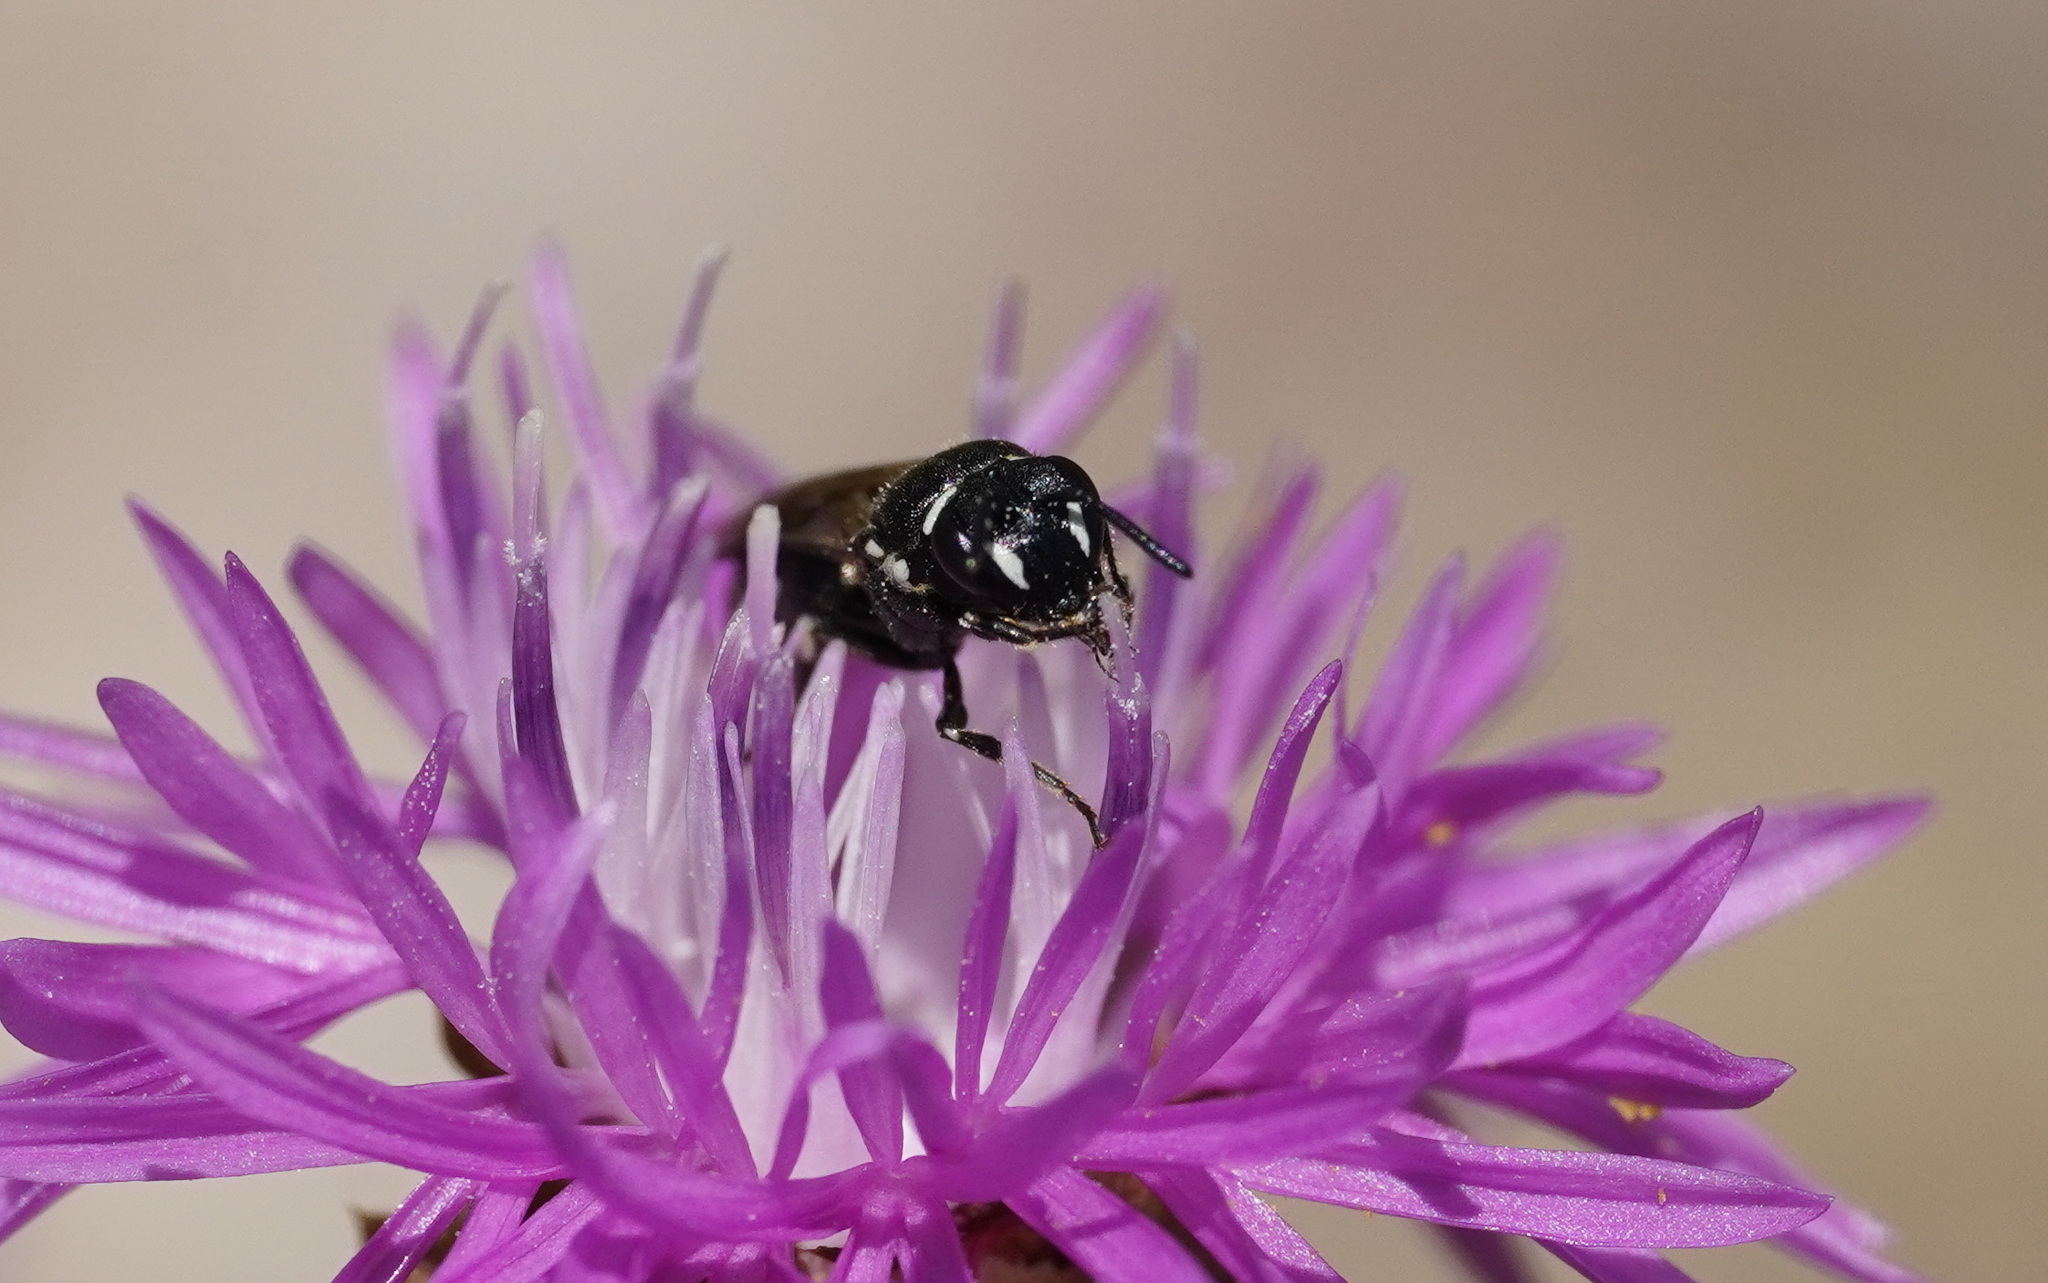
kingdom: Animalia
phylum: Arthropoda
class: Insecta
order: Hymenoptera
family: Colletidae
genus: Hylaeus
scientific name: Hylaeus nigritus
